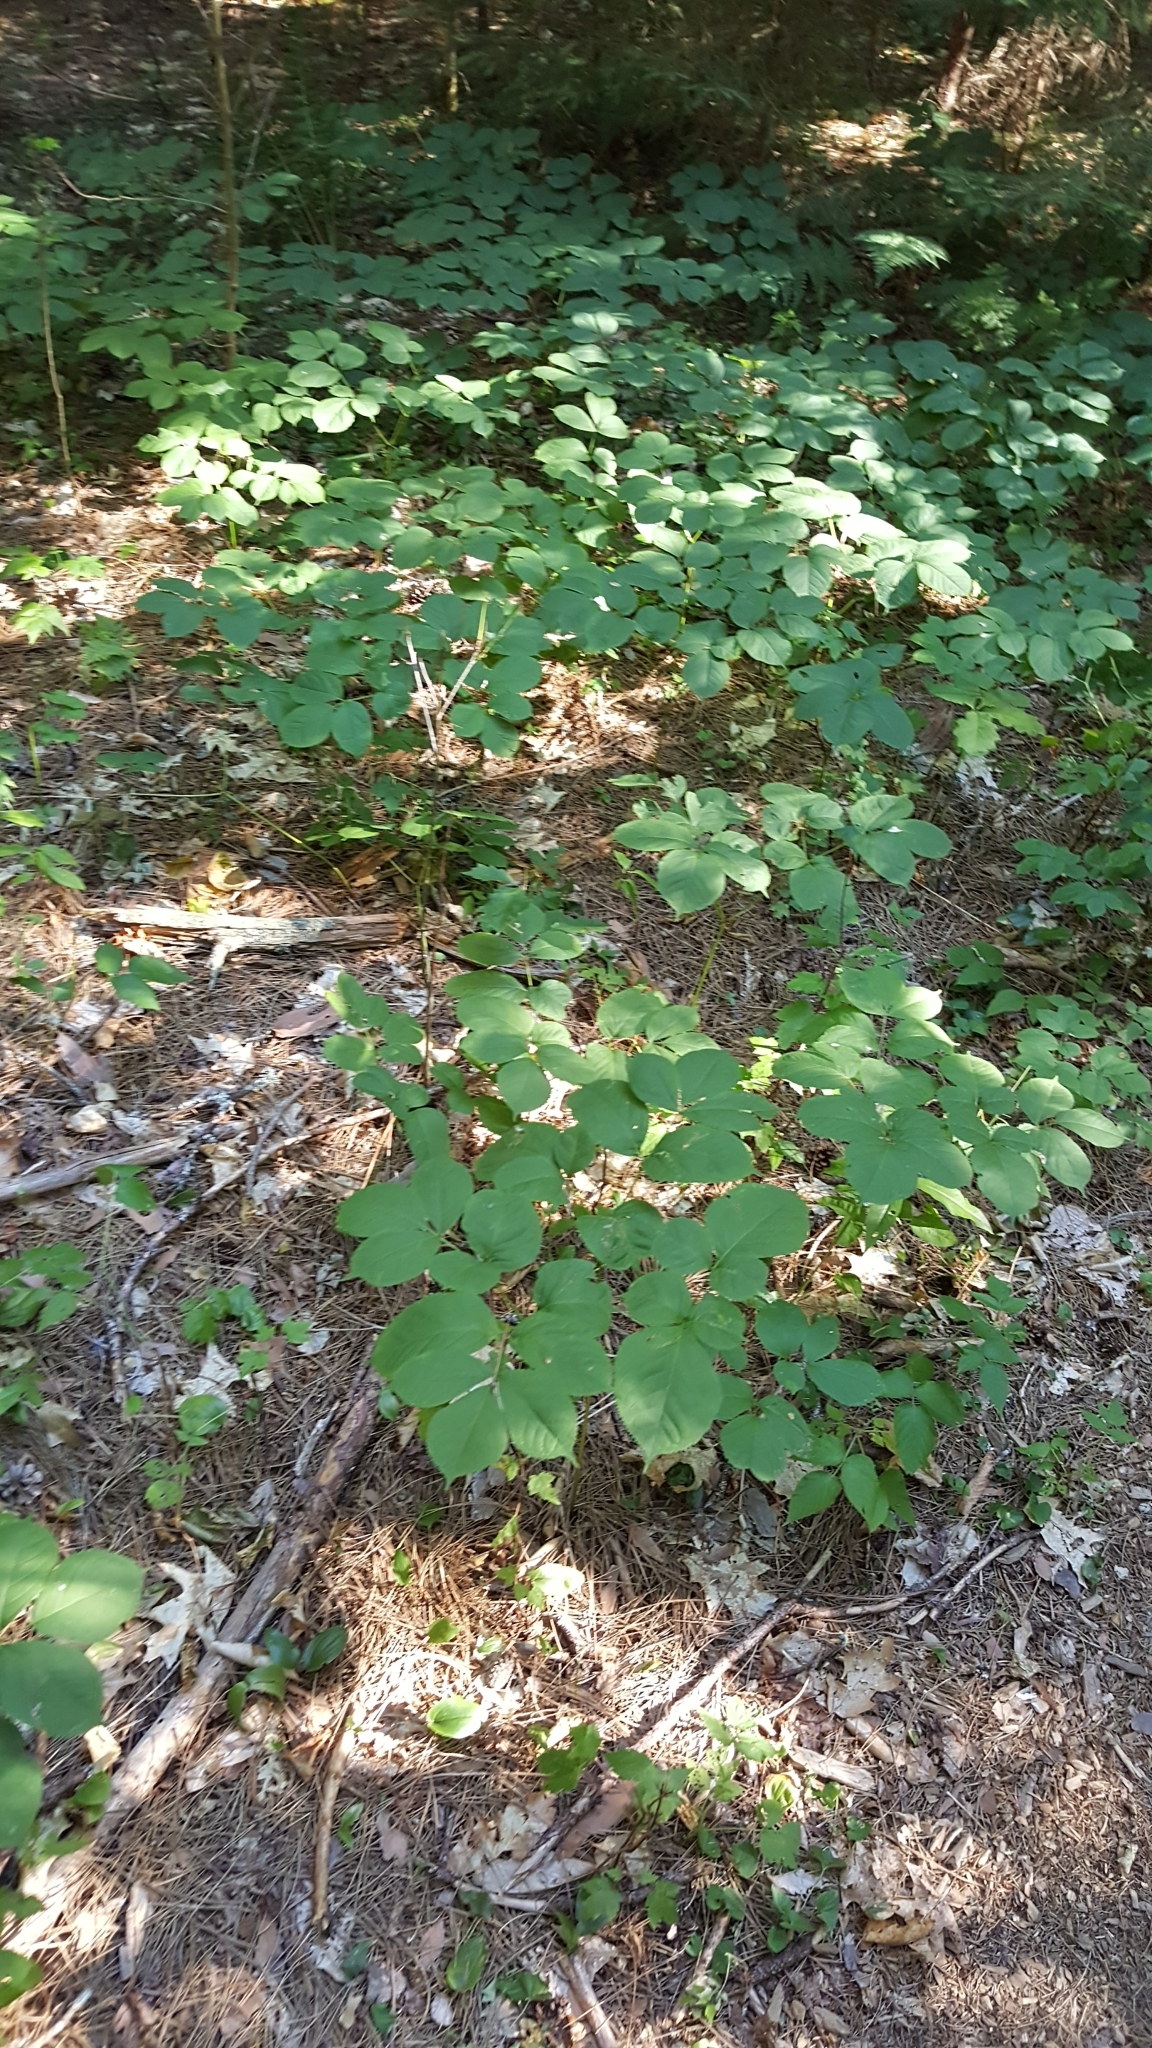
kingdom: Plantae
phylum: Tracheophyta
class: Magnoliopsida
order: Apiales
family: Araliaceae
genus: Aralia
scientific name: Aralia nudicaulis
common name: Wild sarsaparilla
